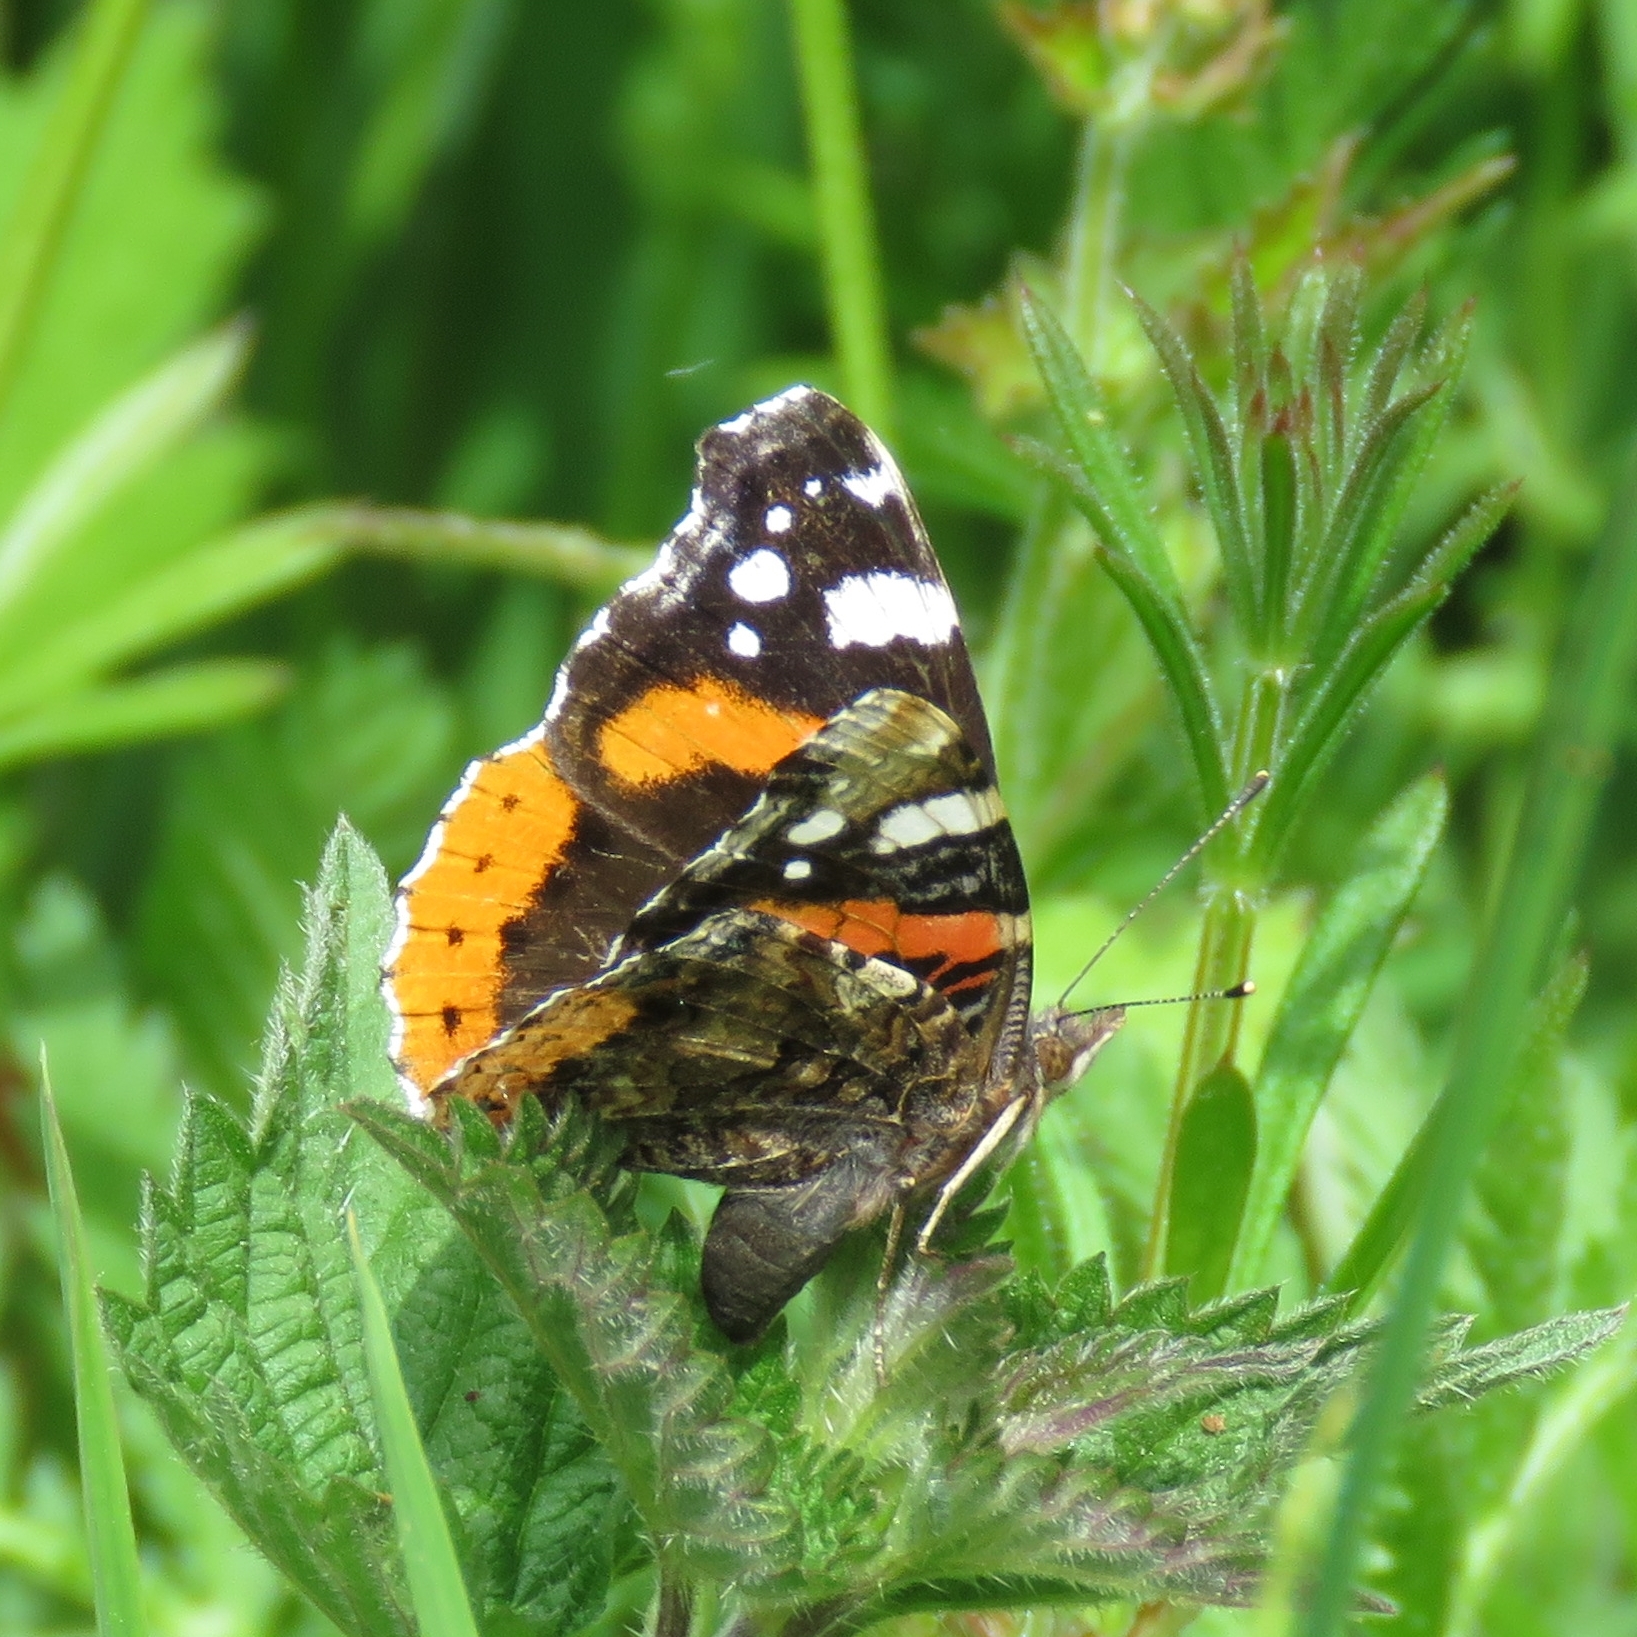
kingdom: Animalia
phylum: Arthropoda
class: Insecta
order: Lepidoptera
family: Nymphalidae
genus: Vanessa
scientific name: Vanessa atalanta
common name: Red admiral
